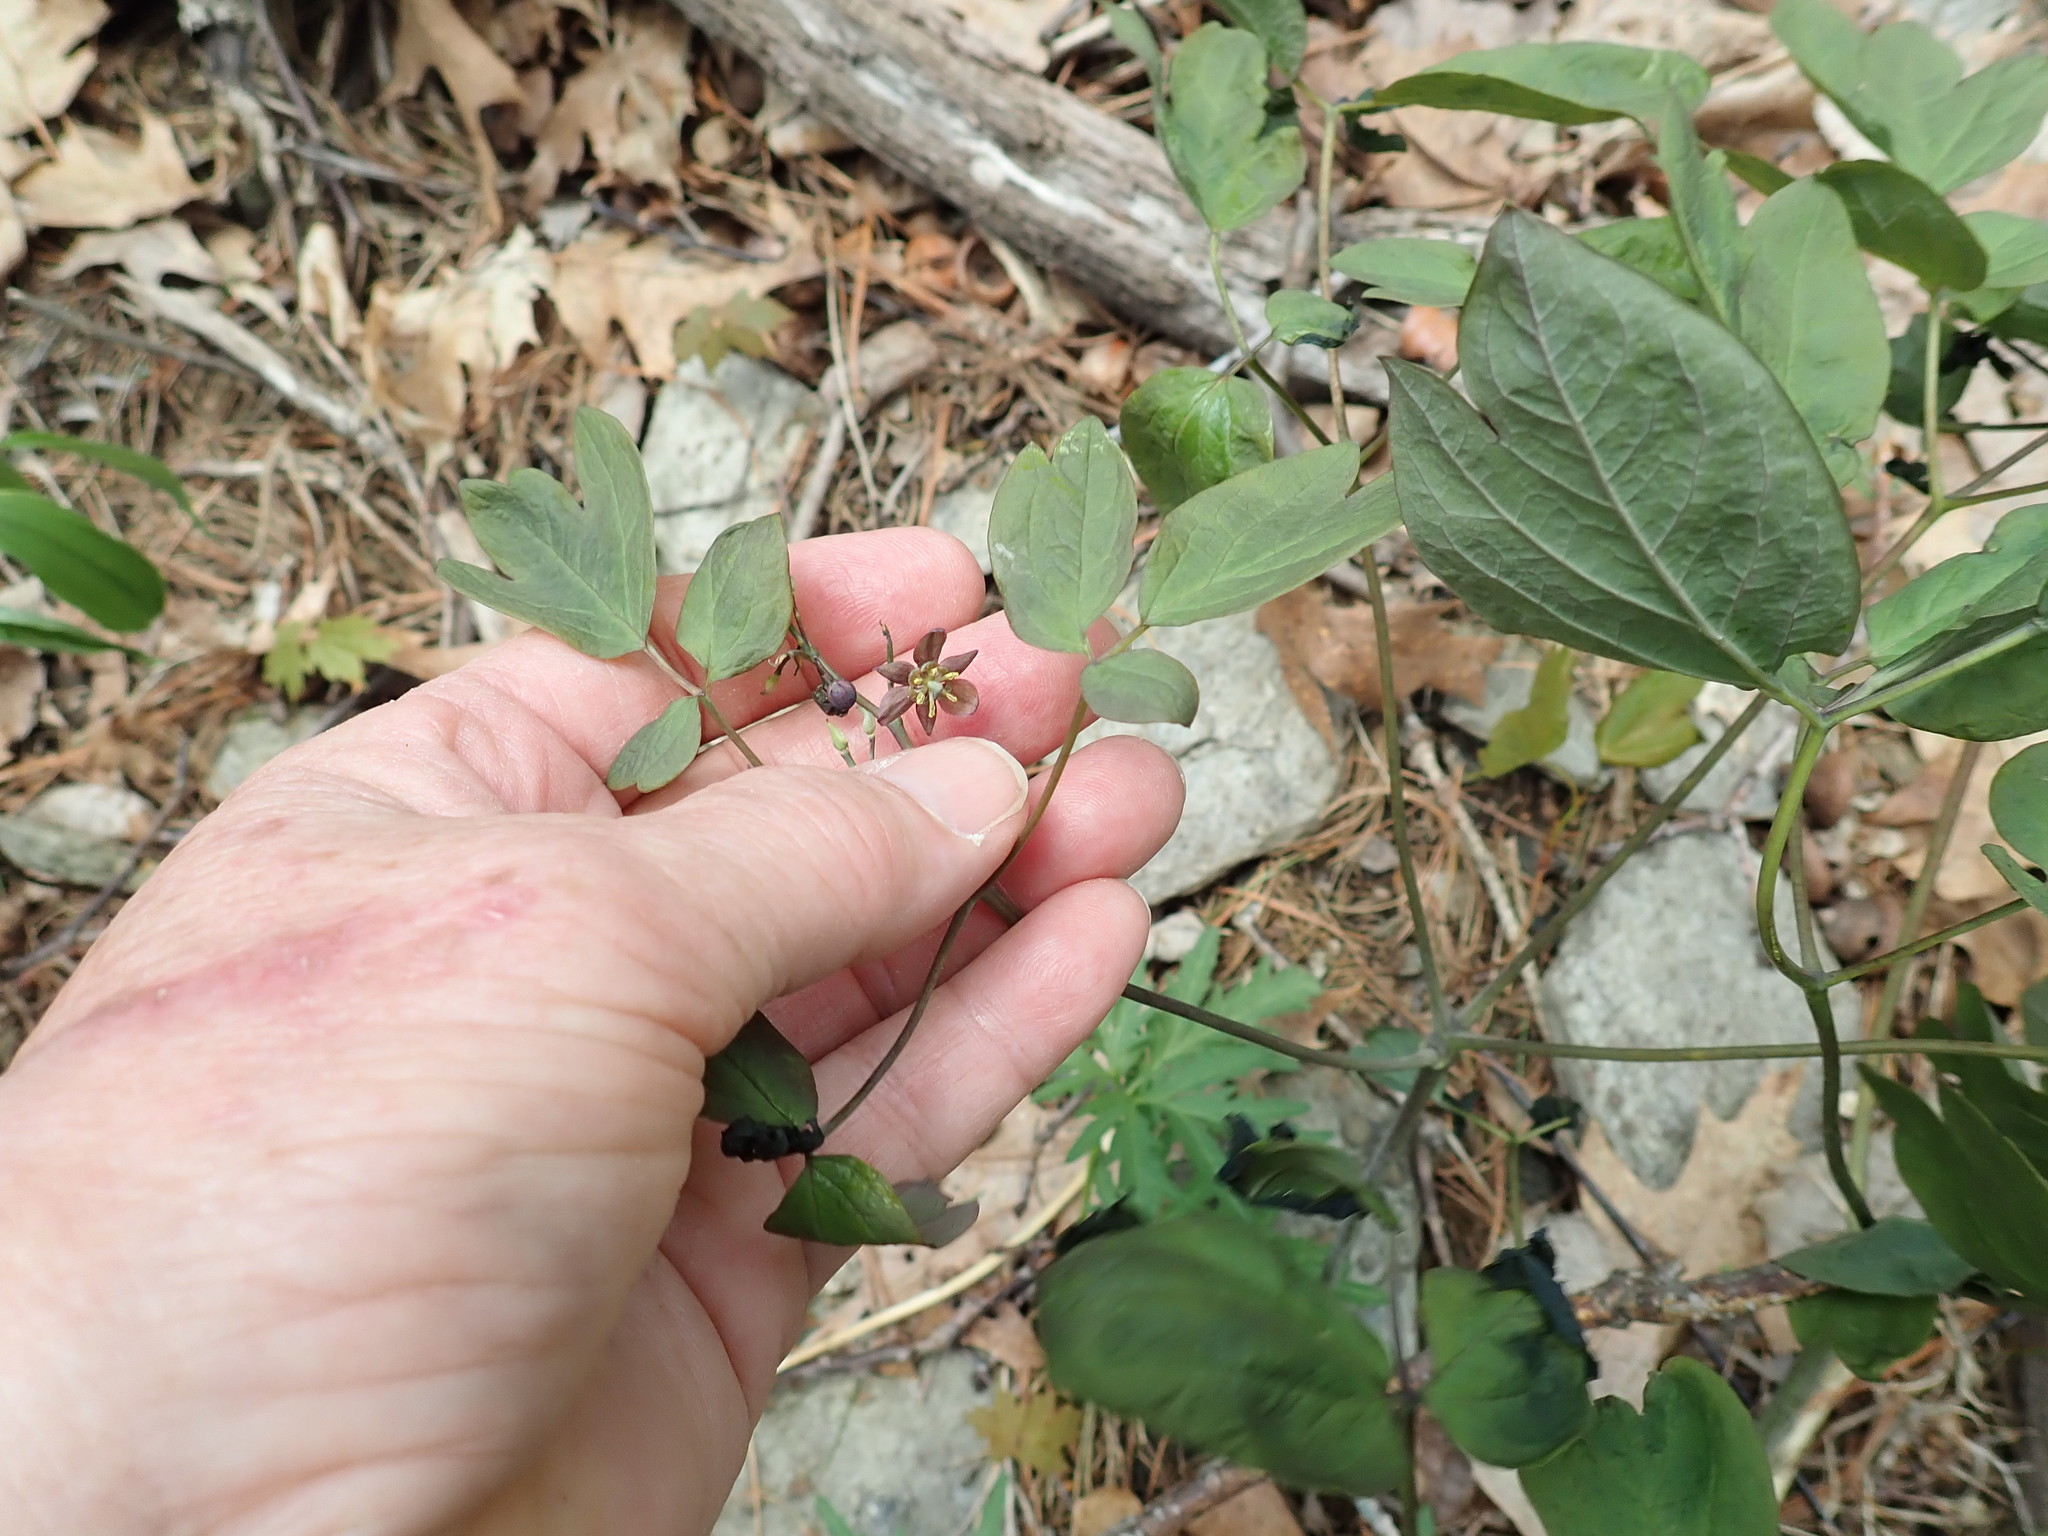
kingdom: Plantae
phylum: Tracheophyta
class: Magnoliopsida
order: Ranunculales
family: Berberidaceae
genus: Caulophyllum
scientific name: Caulophyllum
